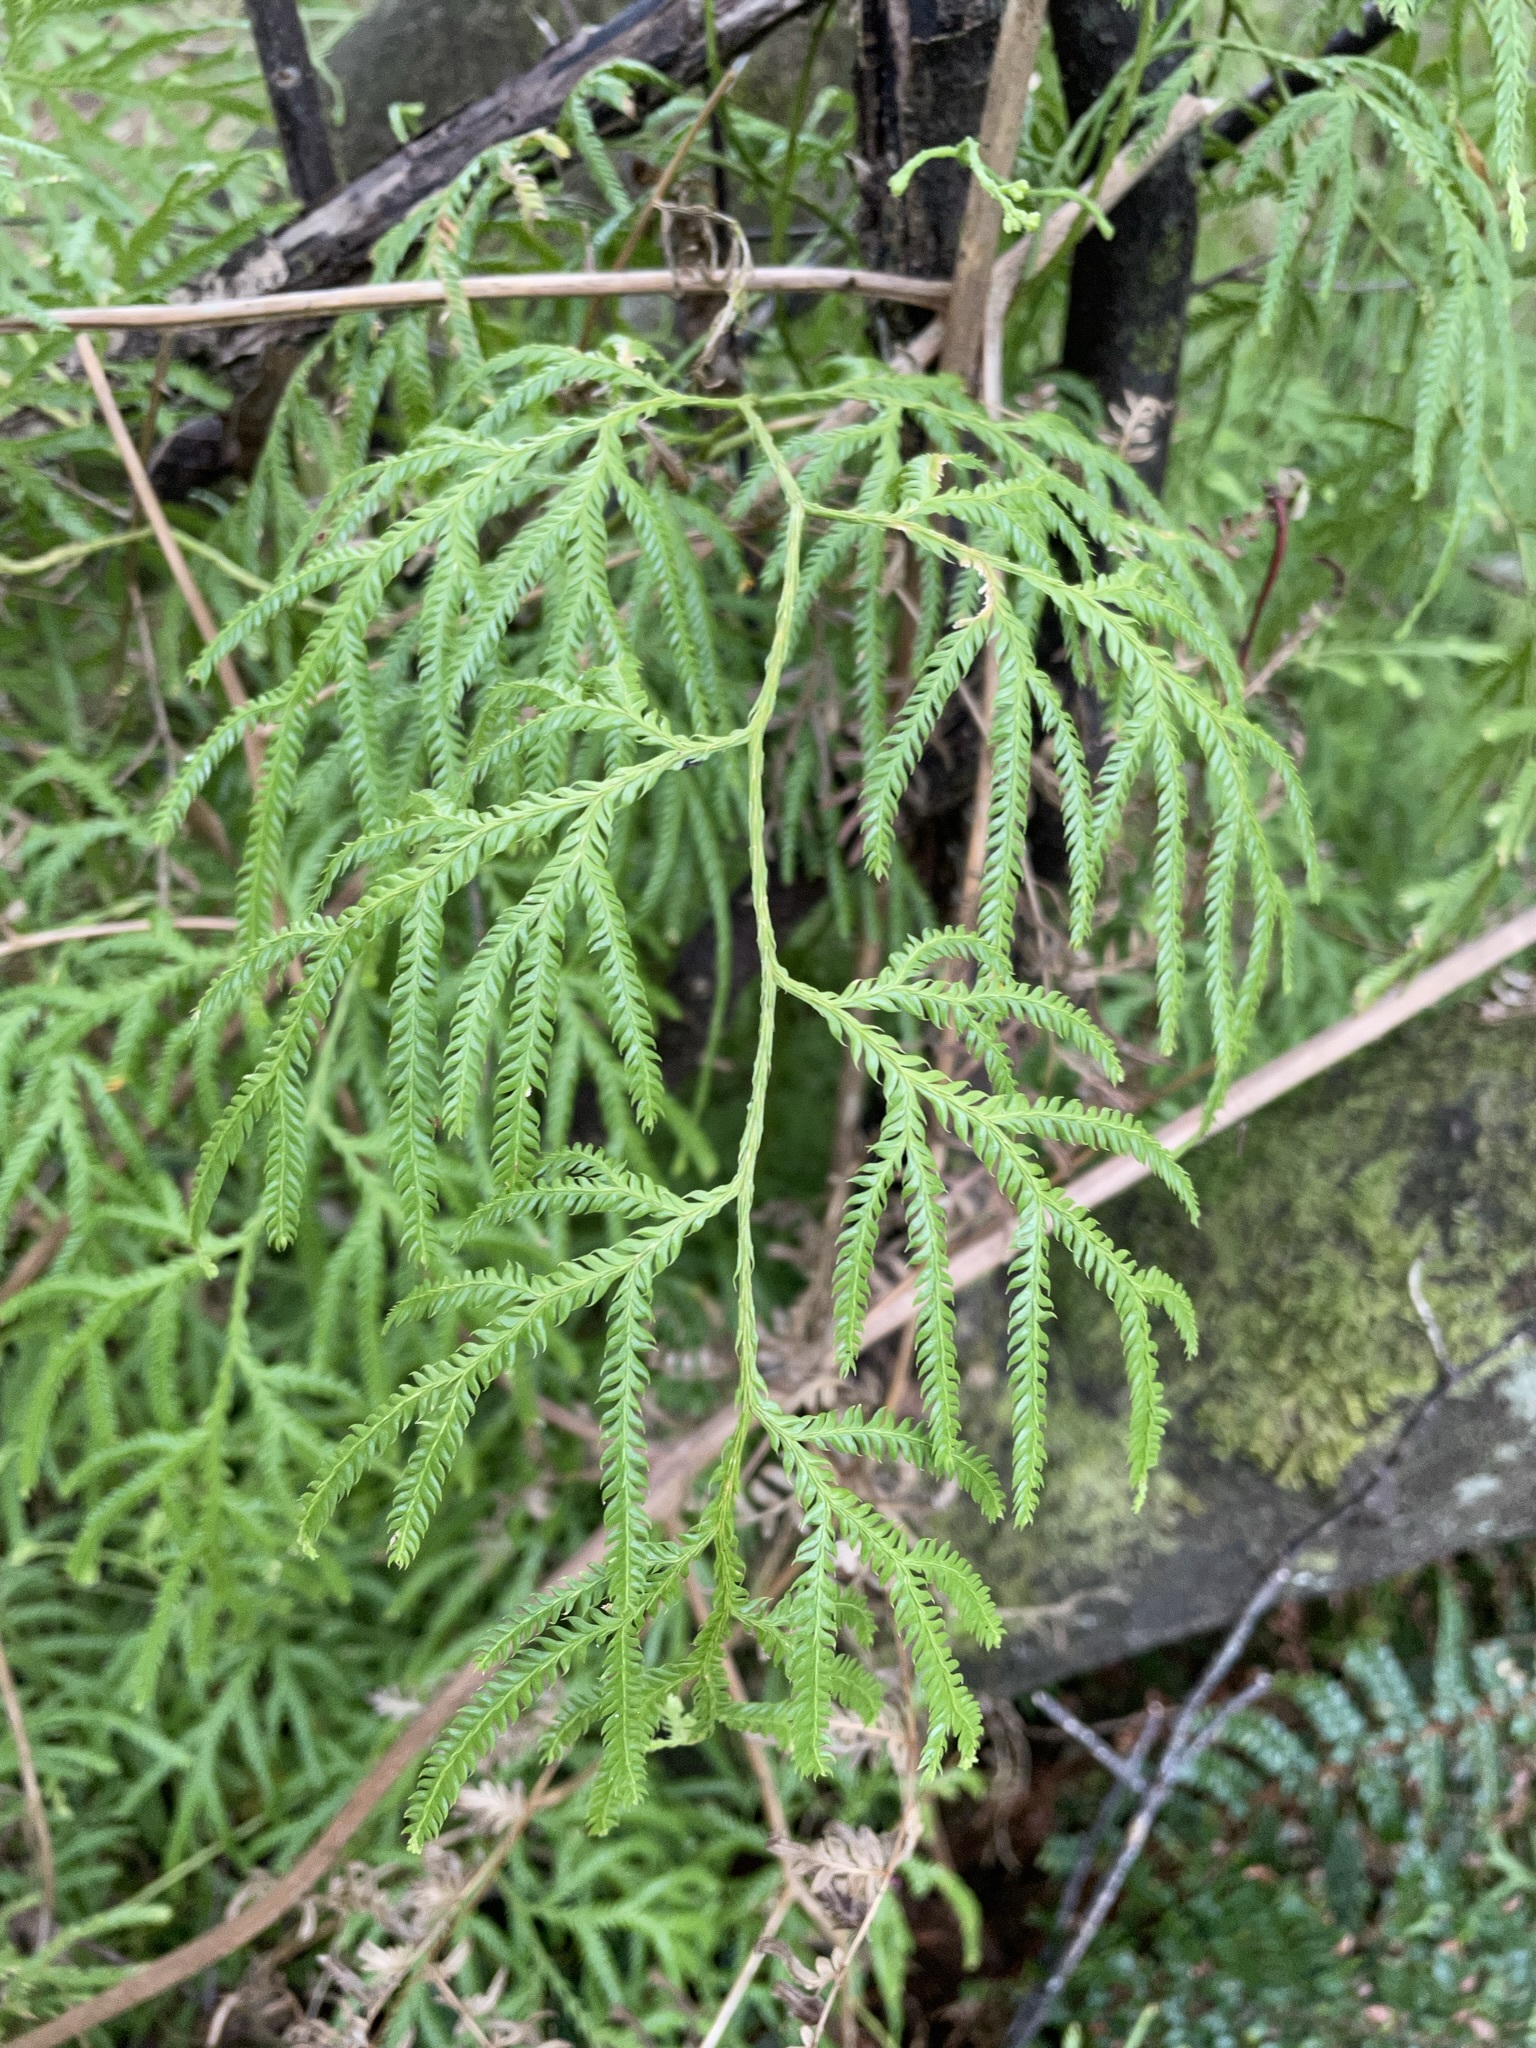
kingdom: Plantae
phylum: Tracheophyta
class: Lycopodiopsida
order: Lycopodiales
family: Lycopodiaceae
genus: Lycopodium
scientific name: Lycopodium volubile
